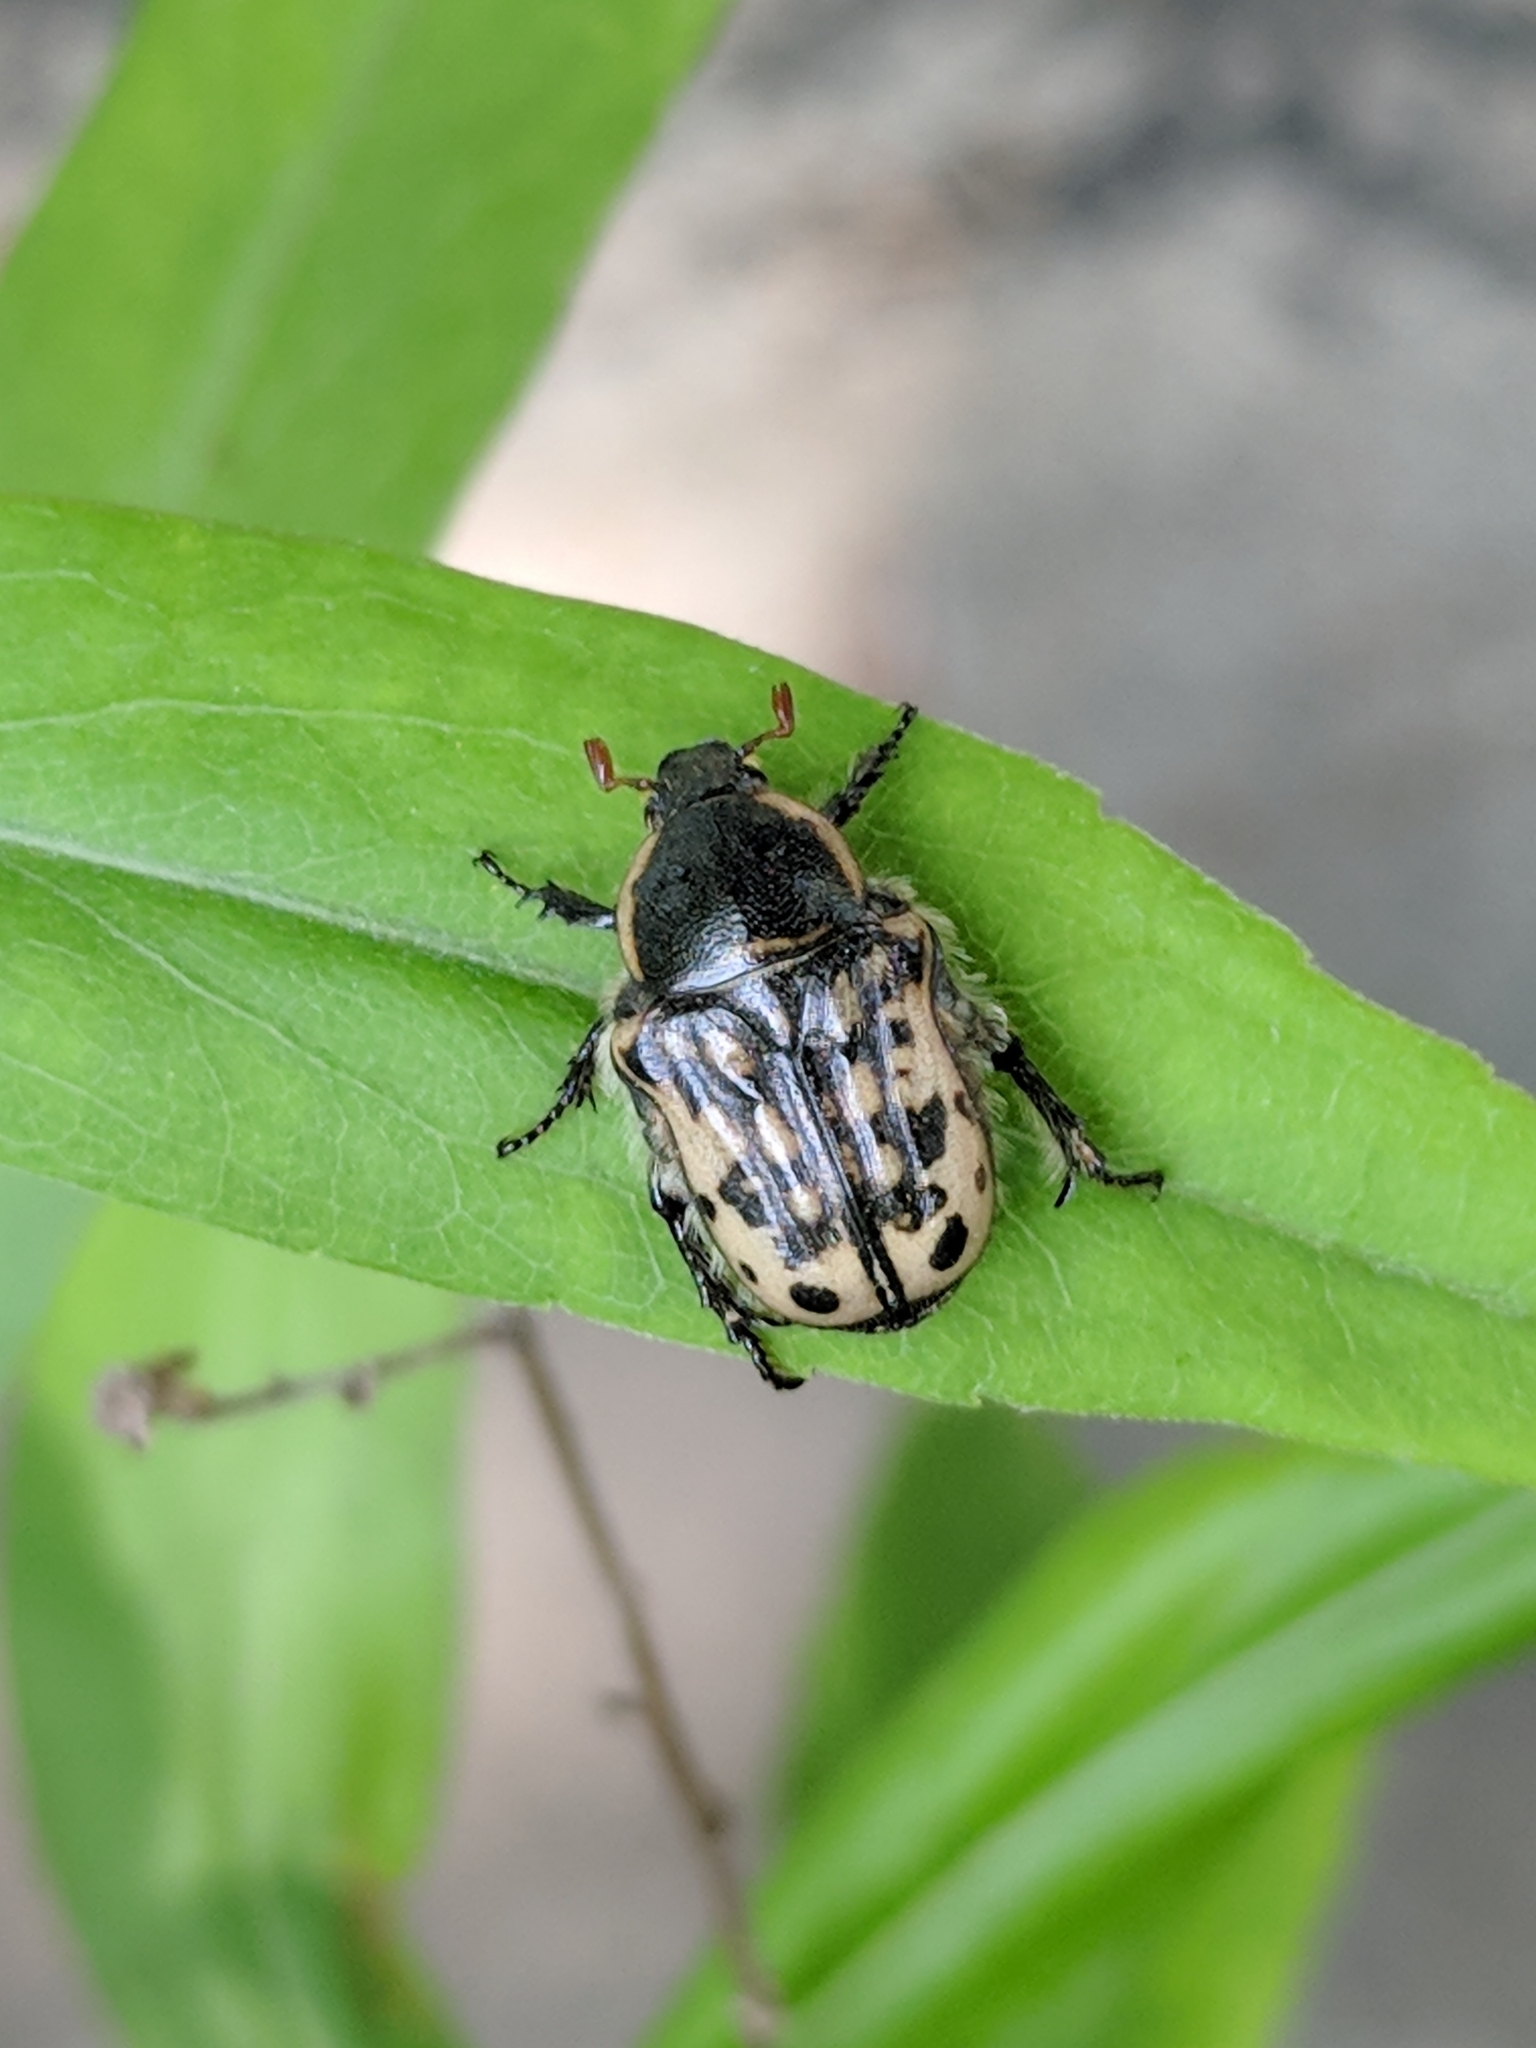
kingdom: Animalia
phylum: Arthropoda
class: Insecta
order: Coleoptera
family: Scarabaeidae
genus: Euphoria
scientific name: Euphoria kernii
